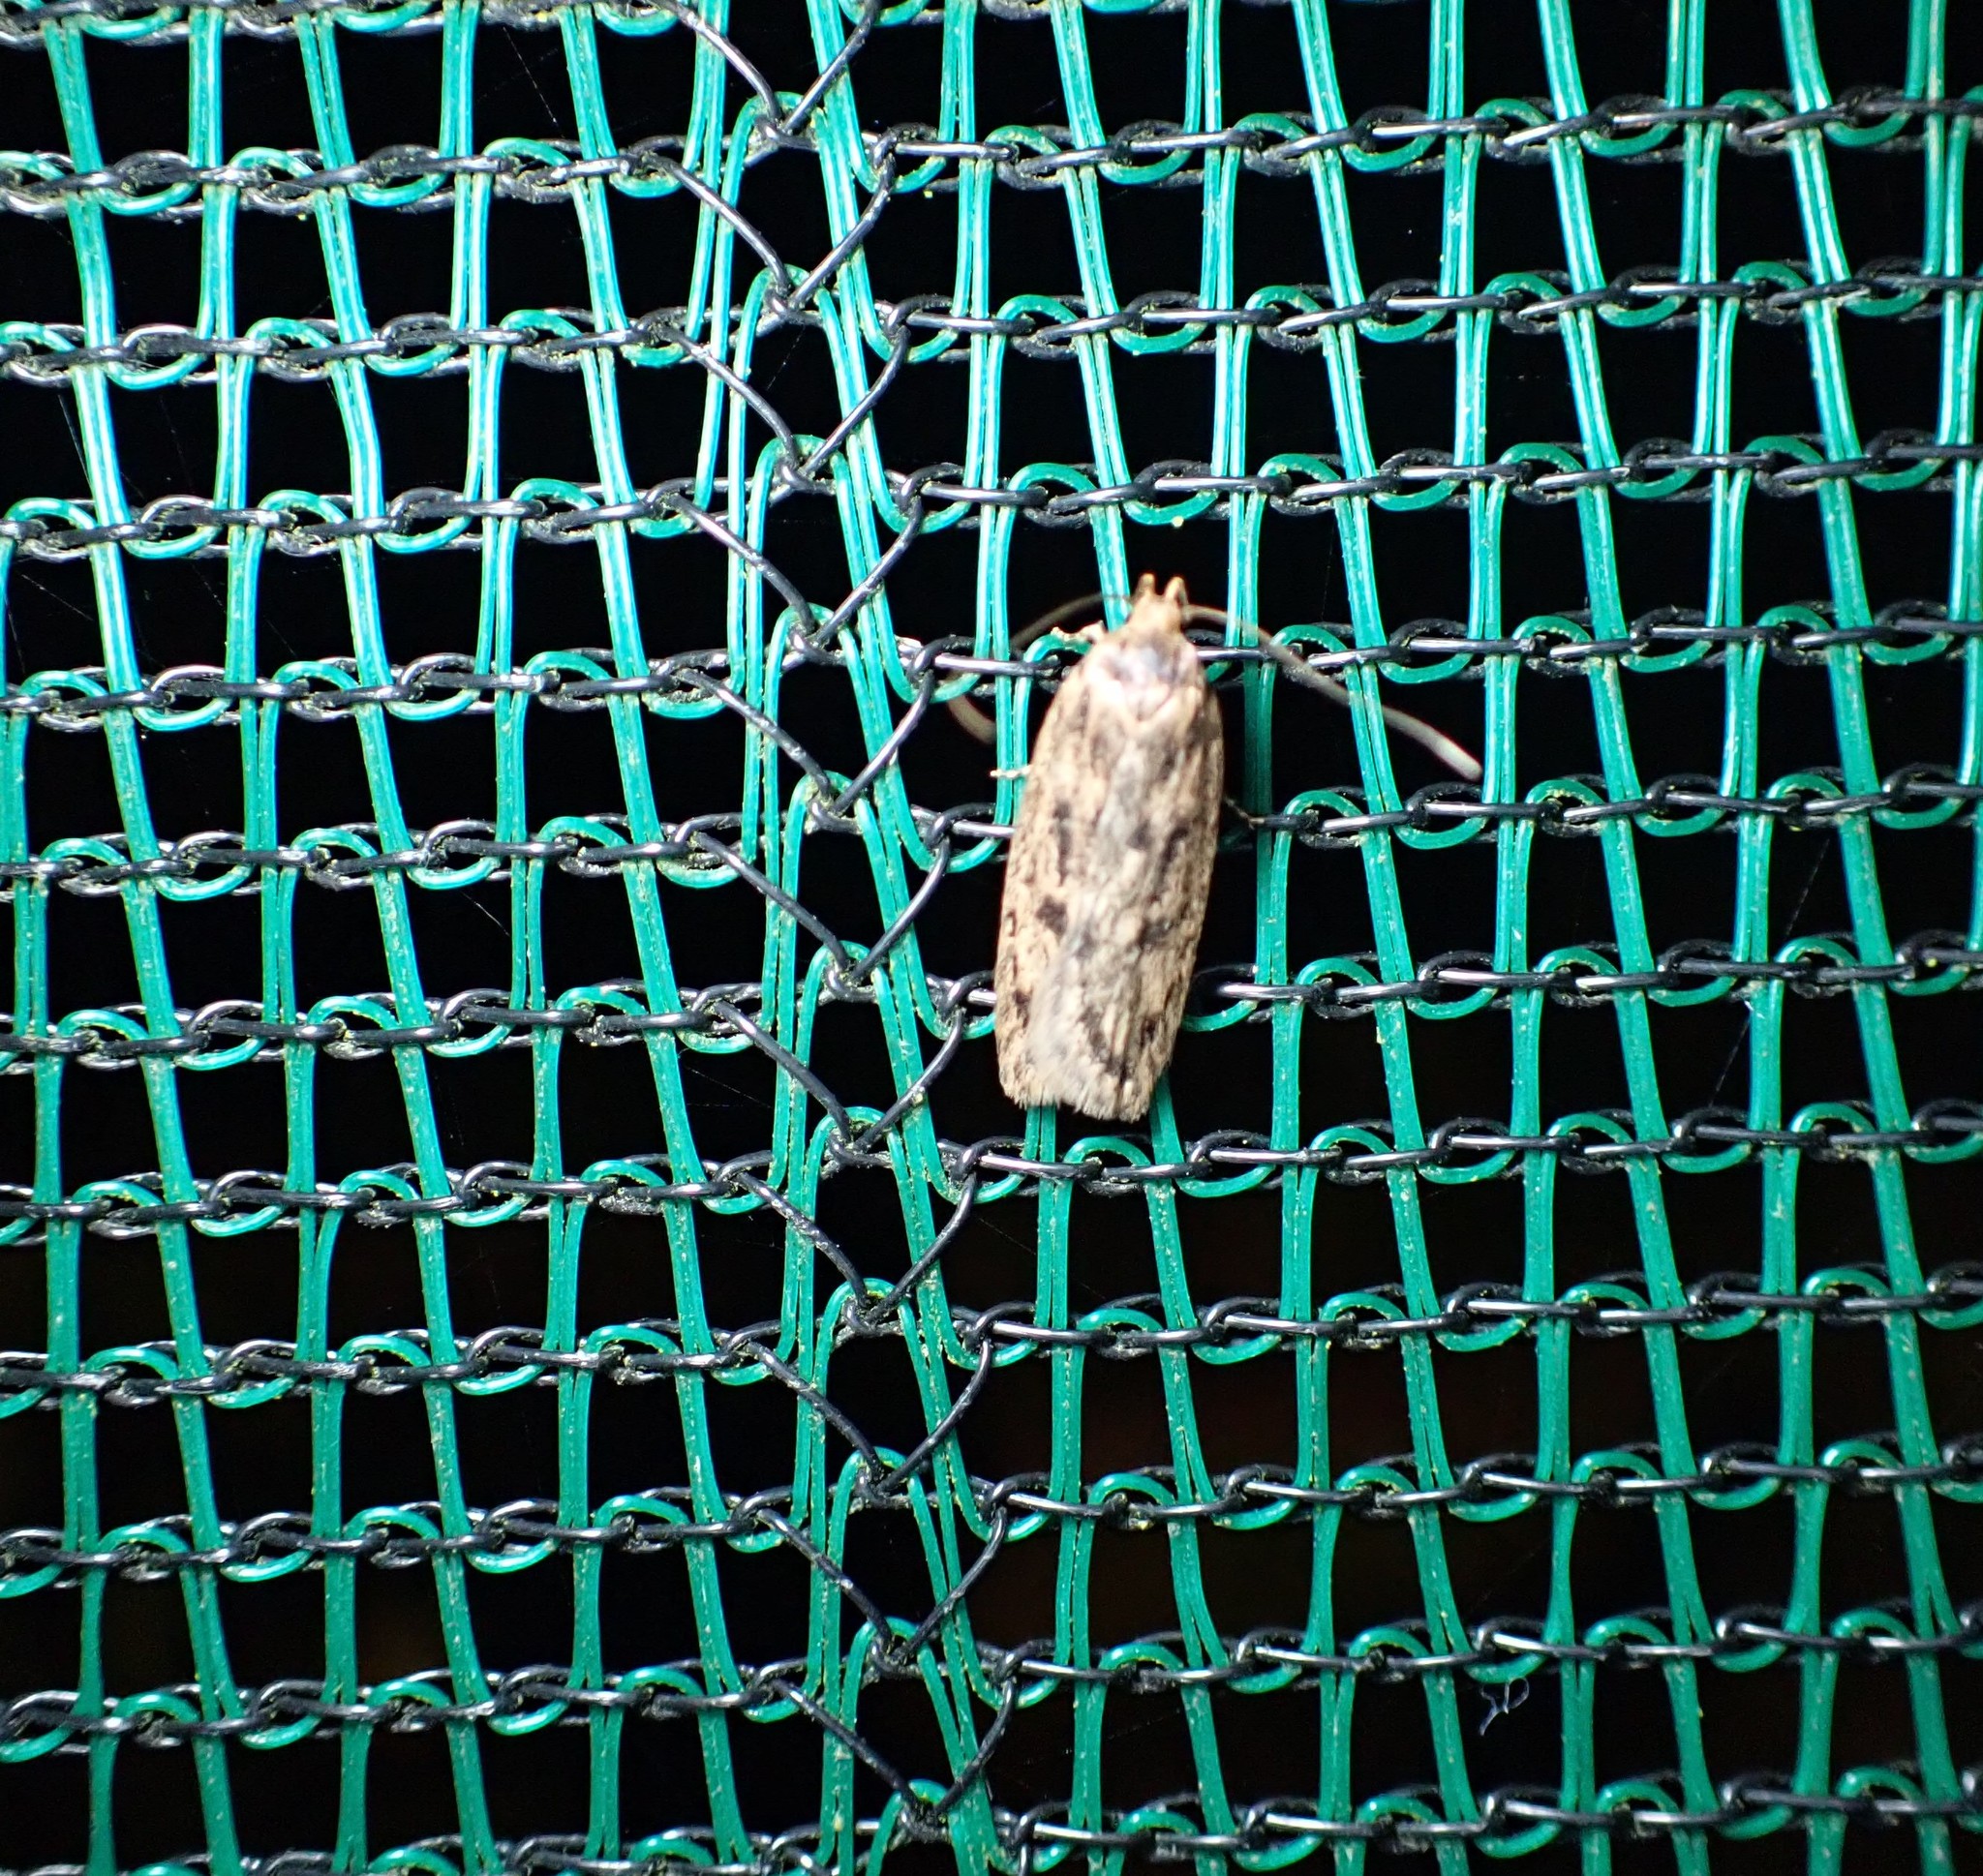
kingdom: Animalia
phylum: Arthropoda
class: Insecta
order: Lepidoptera
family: Oecophoridae
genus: Hofmannophila
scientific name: Hofmannophila pseudospretella
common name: Brown house moth
